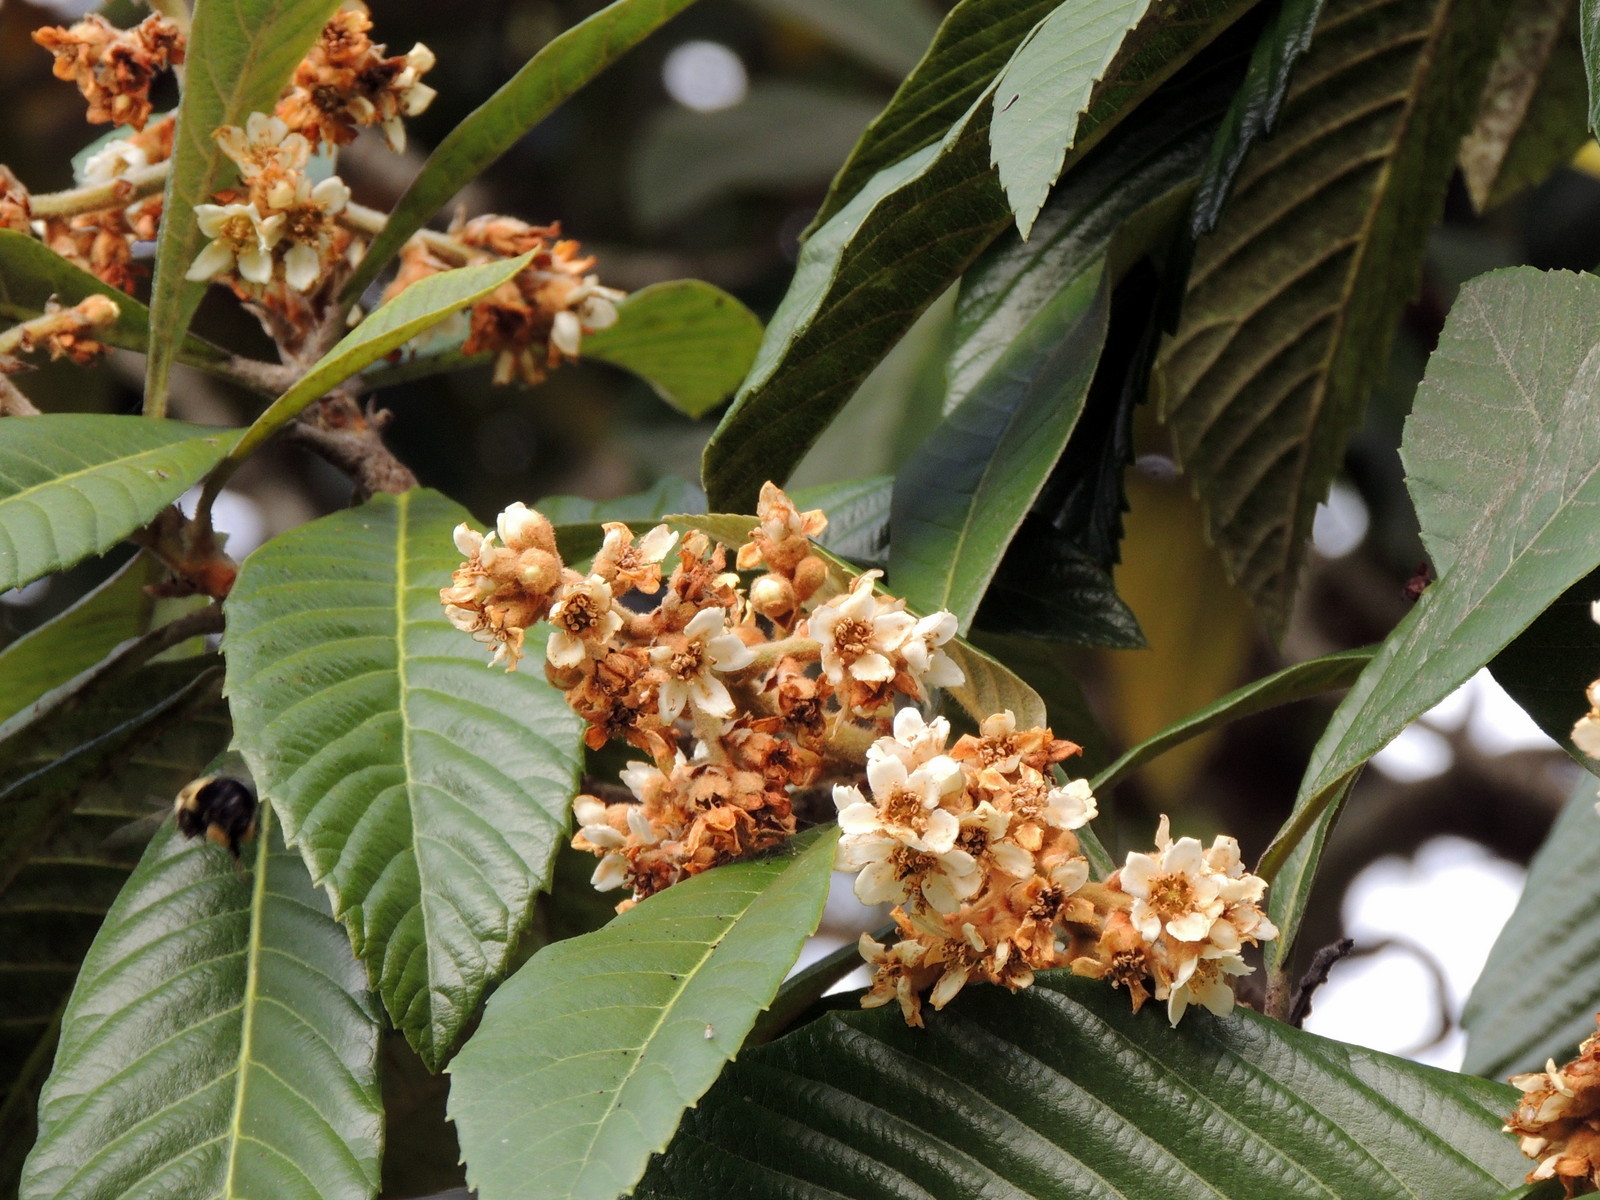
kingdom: Animalia
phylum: Arthropoda
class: Insecta
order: Hymenoptera
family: Apidae
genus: Bombus
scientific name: Bombus impatiens
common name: Common eastern bumble bee
